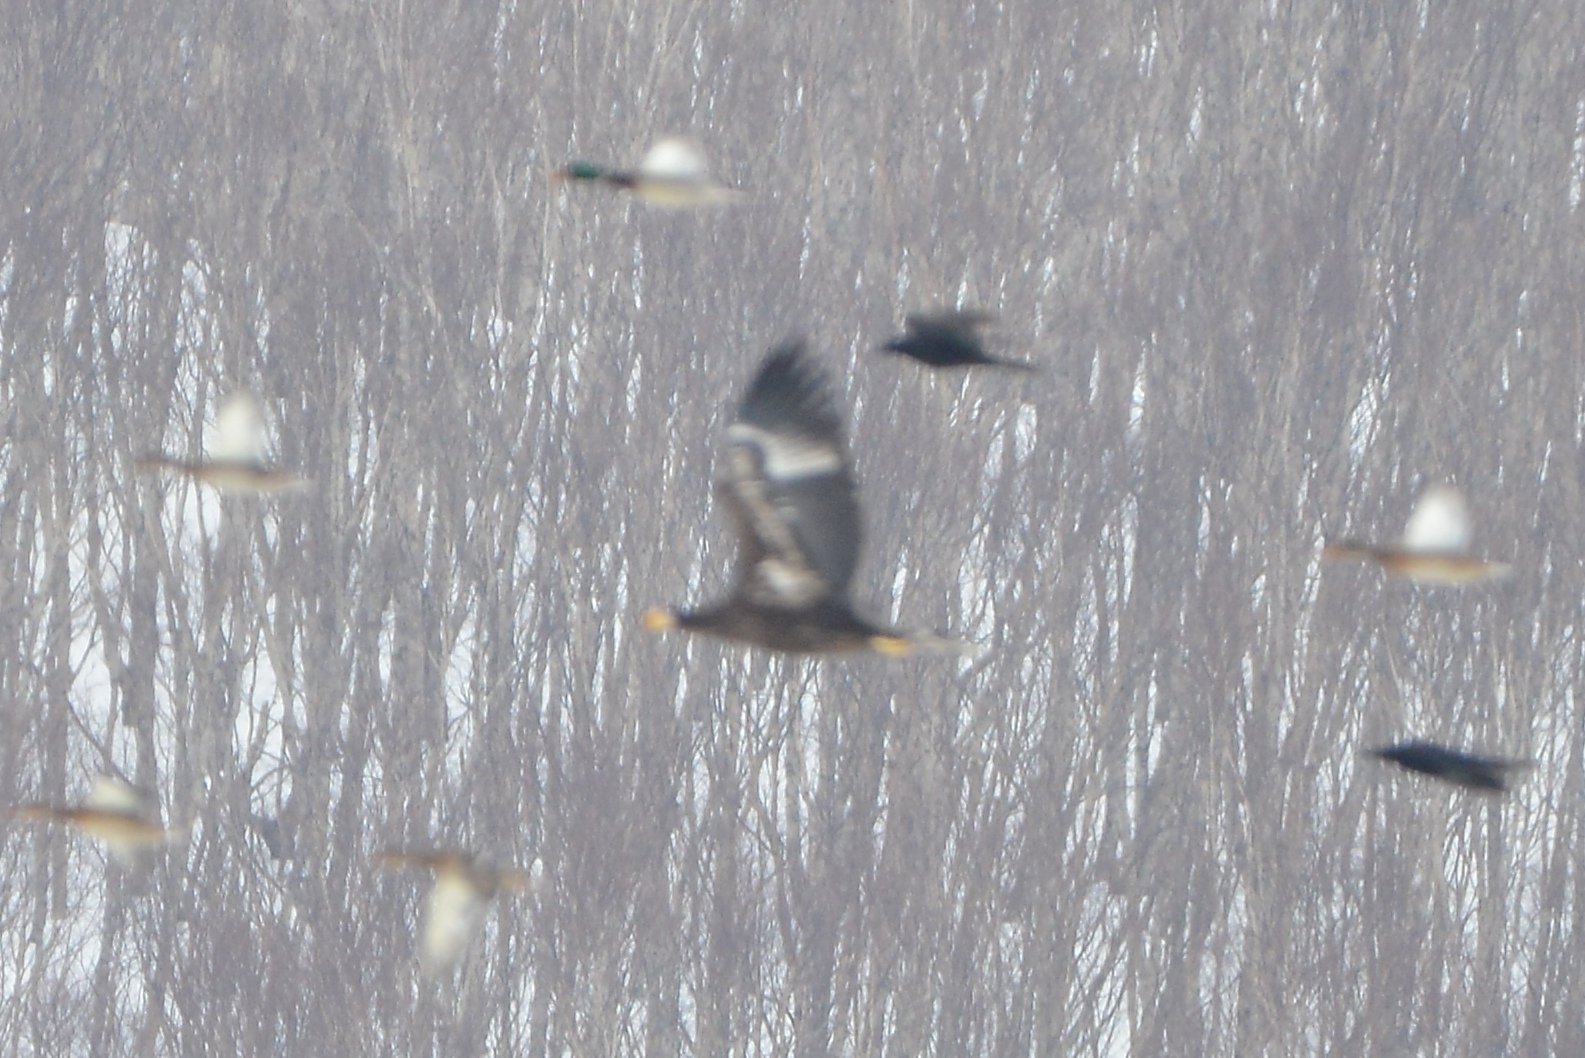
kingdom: Animalia
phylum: Chordata
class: Aves
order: Accipitriformes
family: Accipitridae
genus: Haliaeetus
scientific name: Haliaeetus pelagicus
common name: Steller's sea eagle
